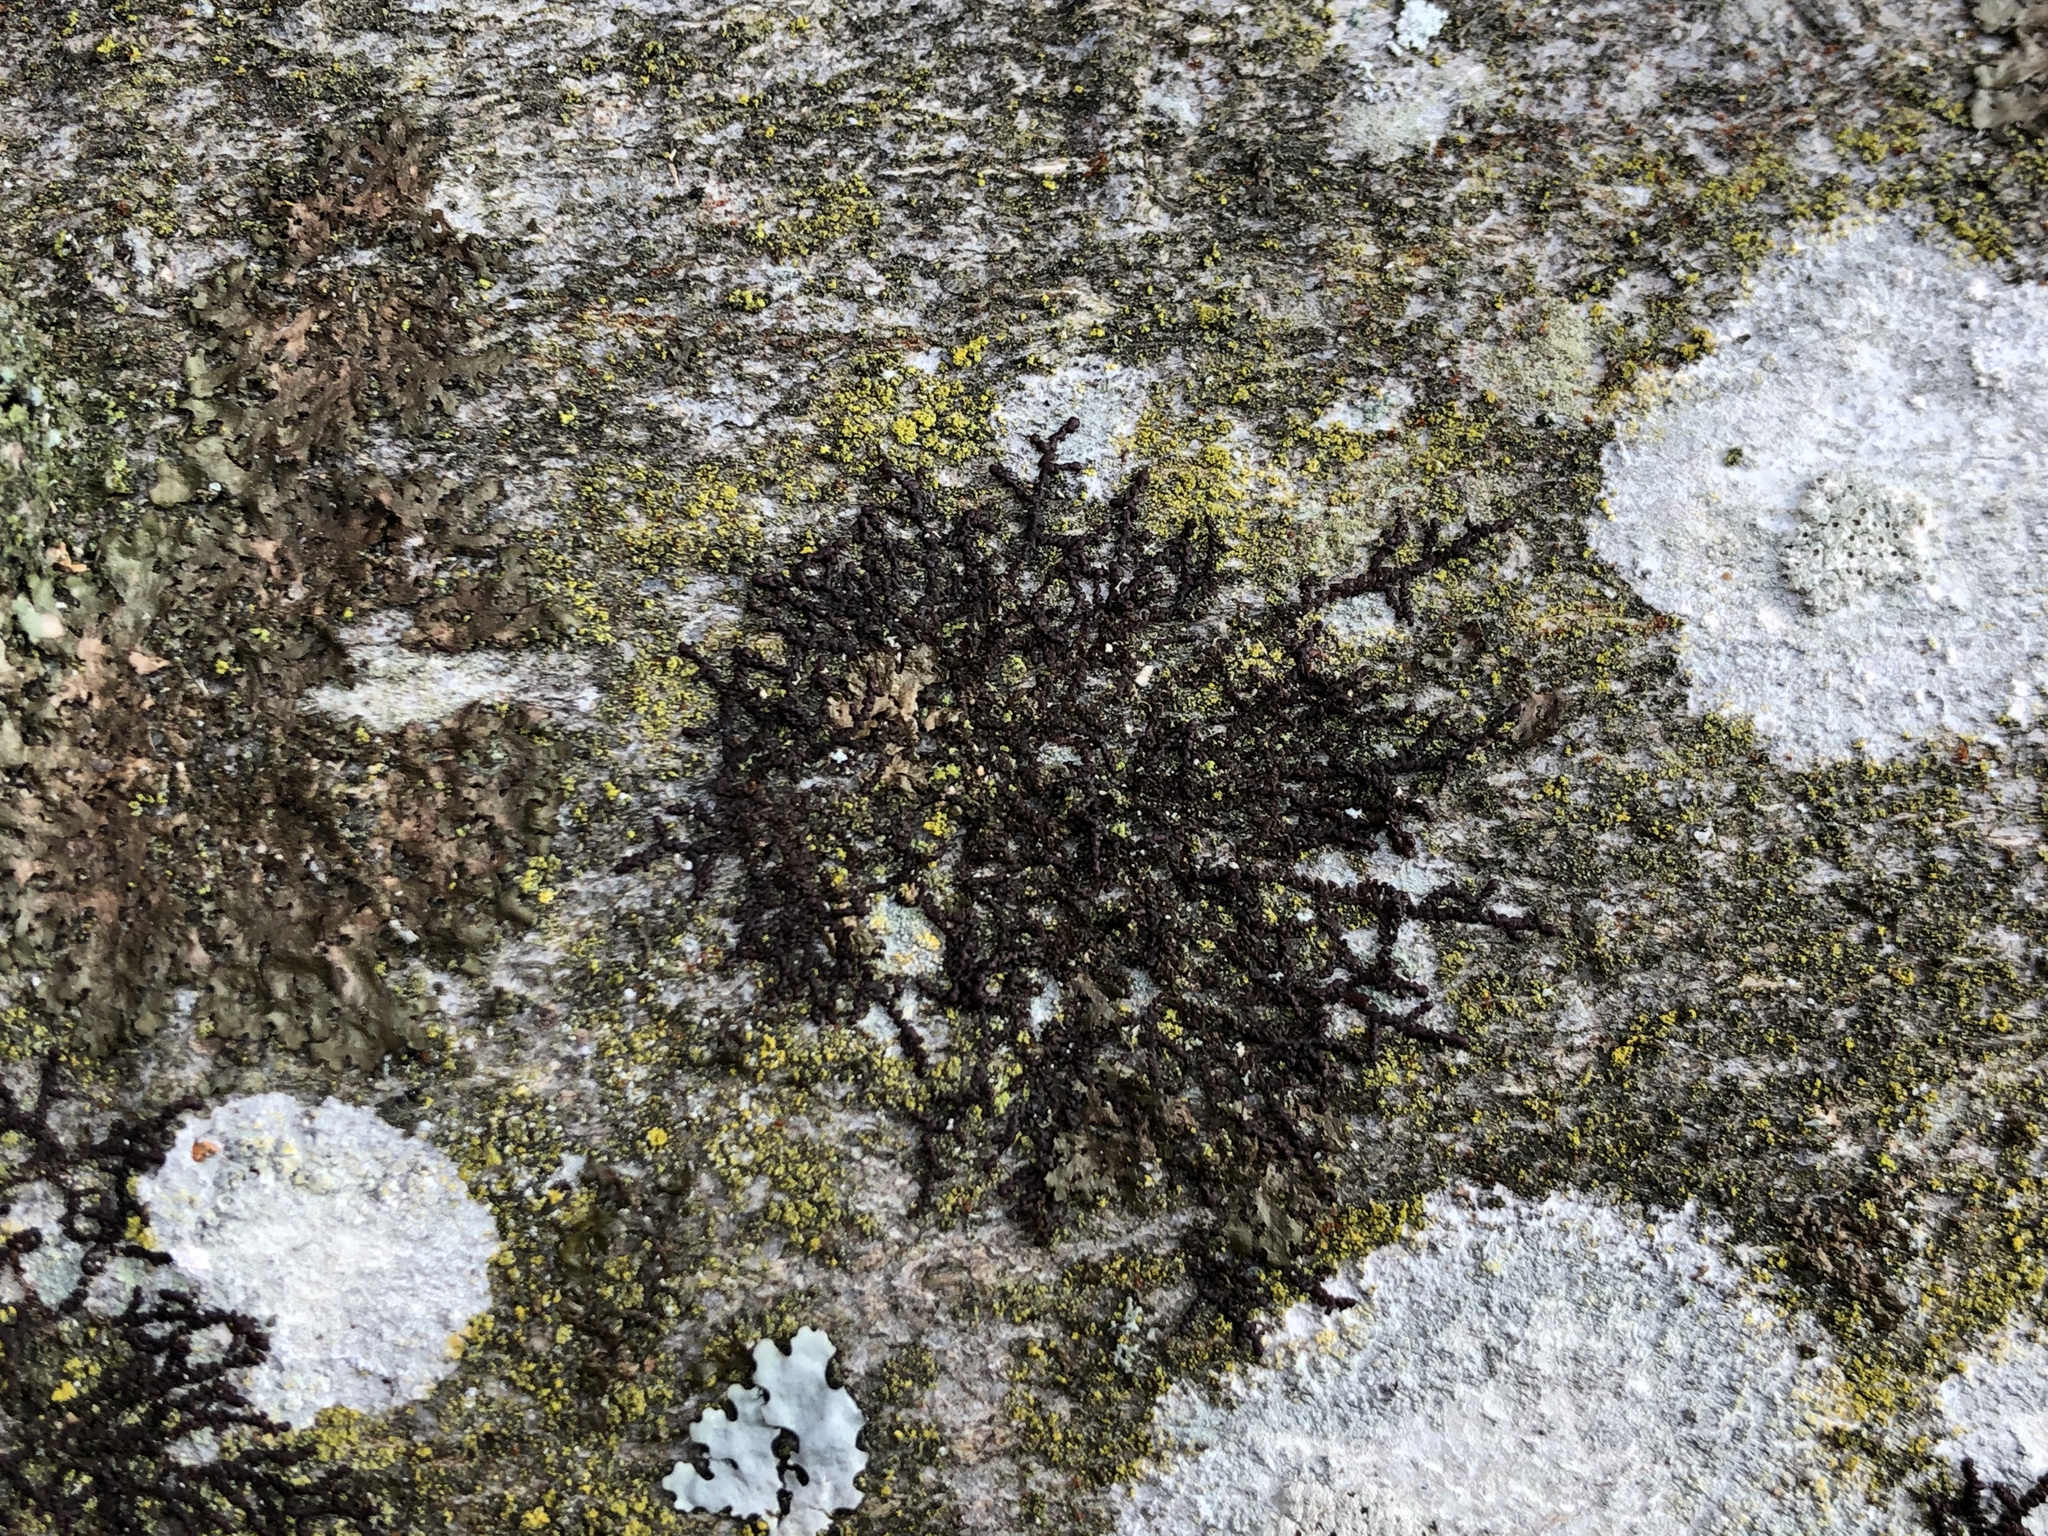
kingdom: Plantae
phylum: Marchantiophyta
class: Jungermanniopsida
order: Porellales
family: Frullaniaceae
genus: Frullania
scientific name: Frullania dilatata
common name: Dilated scalewort
